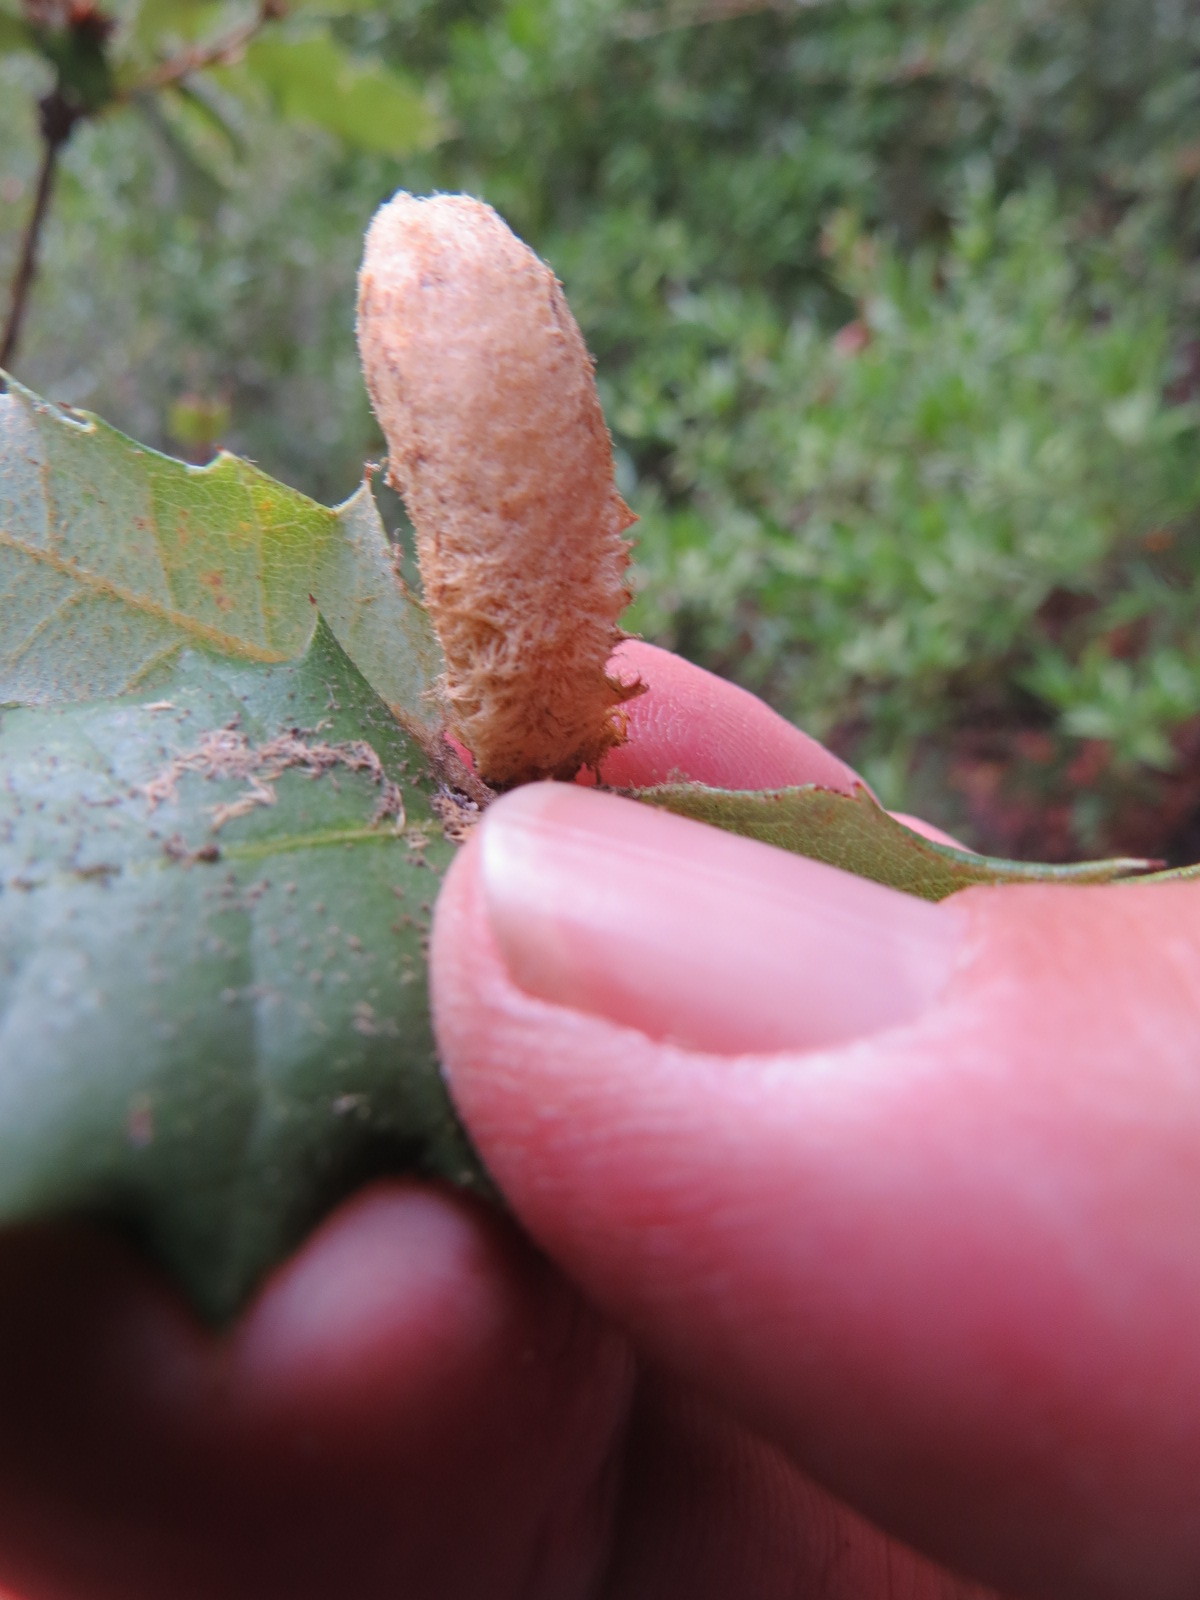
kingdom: Animalia
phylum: Arthropoda
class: Insecta
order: Hymenoptera
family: Cynipidae
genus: Heteroecus
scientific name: Heteroecus
